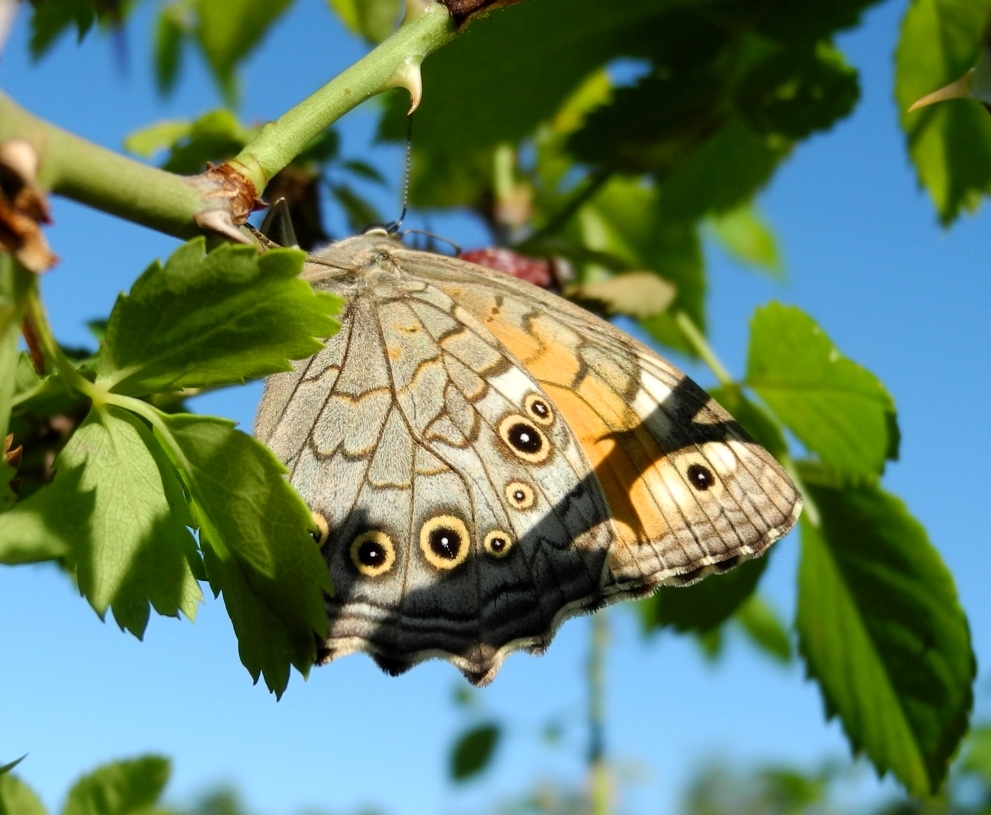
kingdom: Animalia
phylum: Arthropoda
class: Insecta
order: Lepidoptera
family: Nymphalidae
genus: Kirinia
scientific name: Kirinia roxelana
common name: Lattice brown
